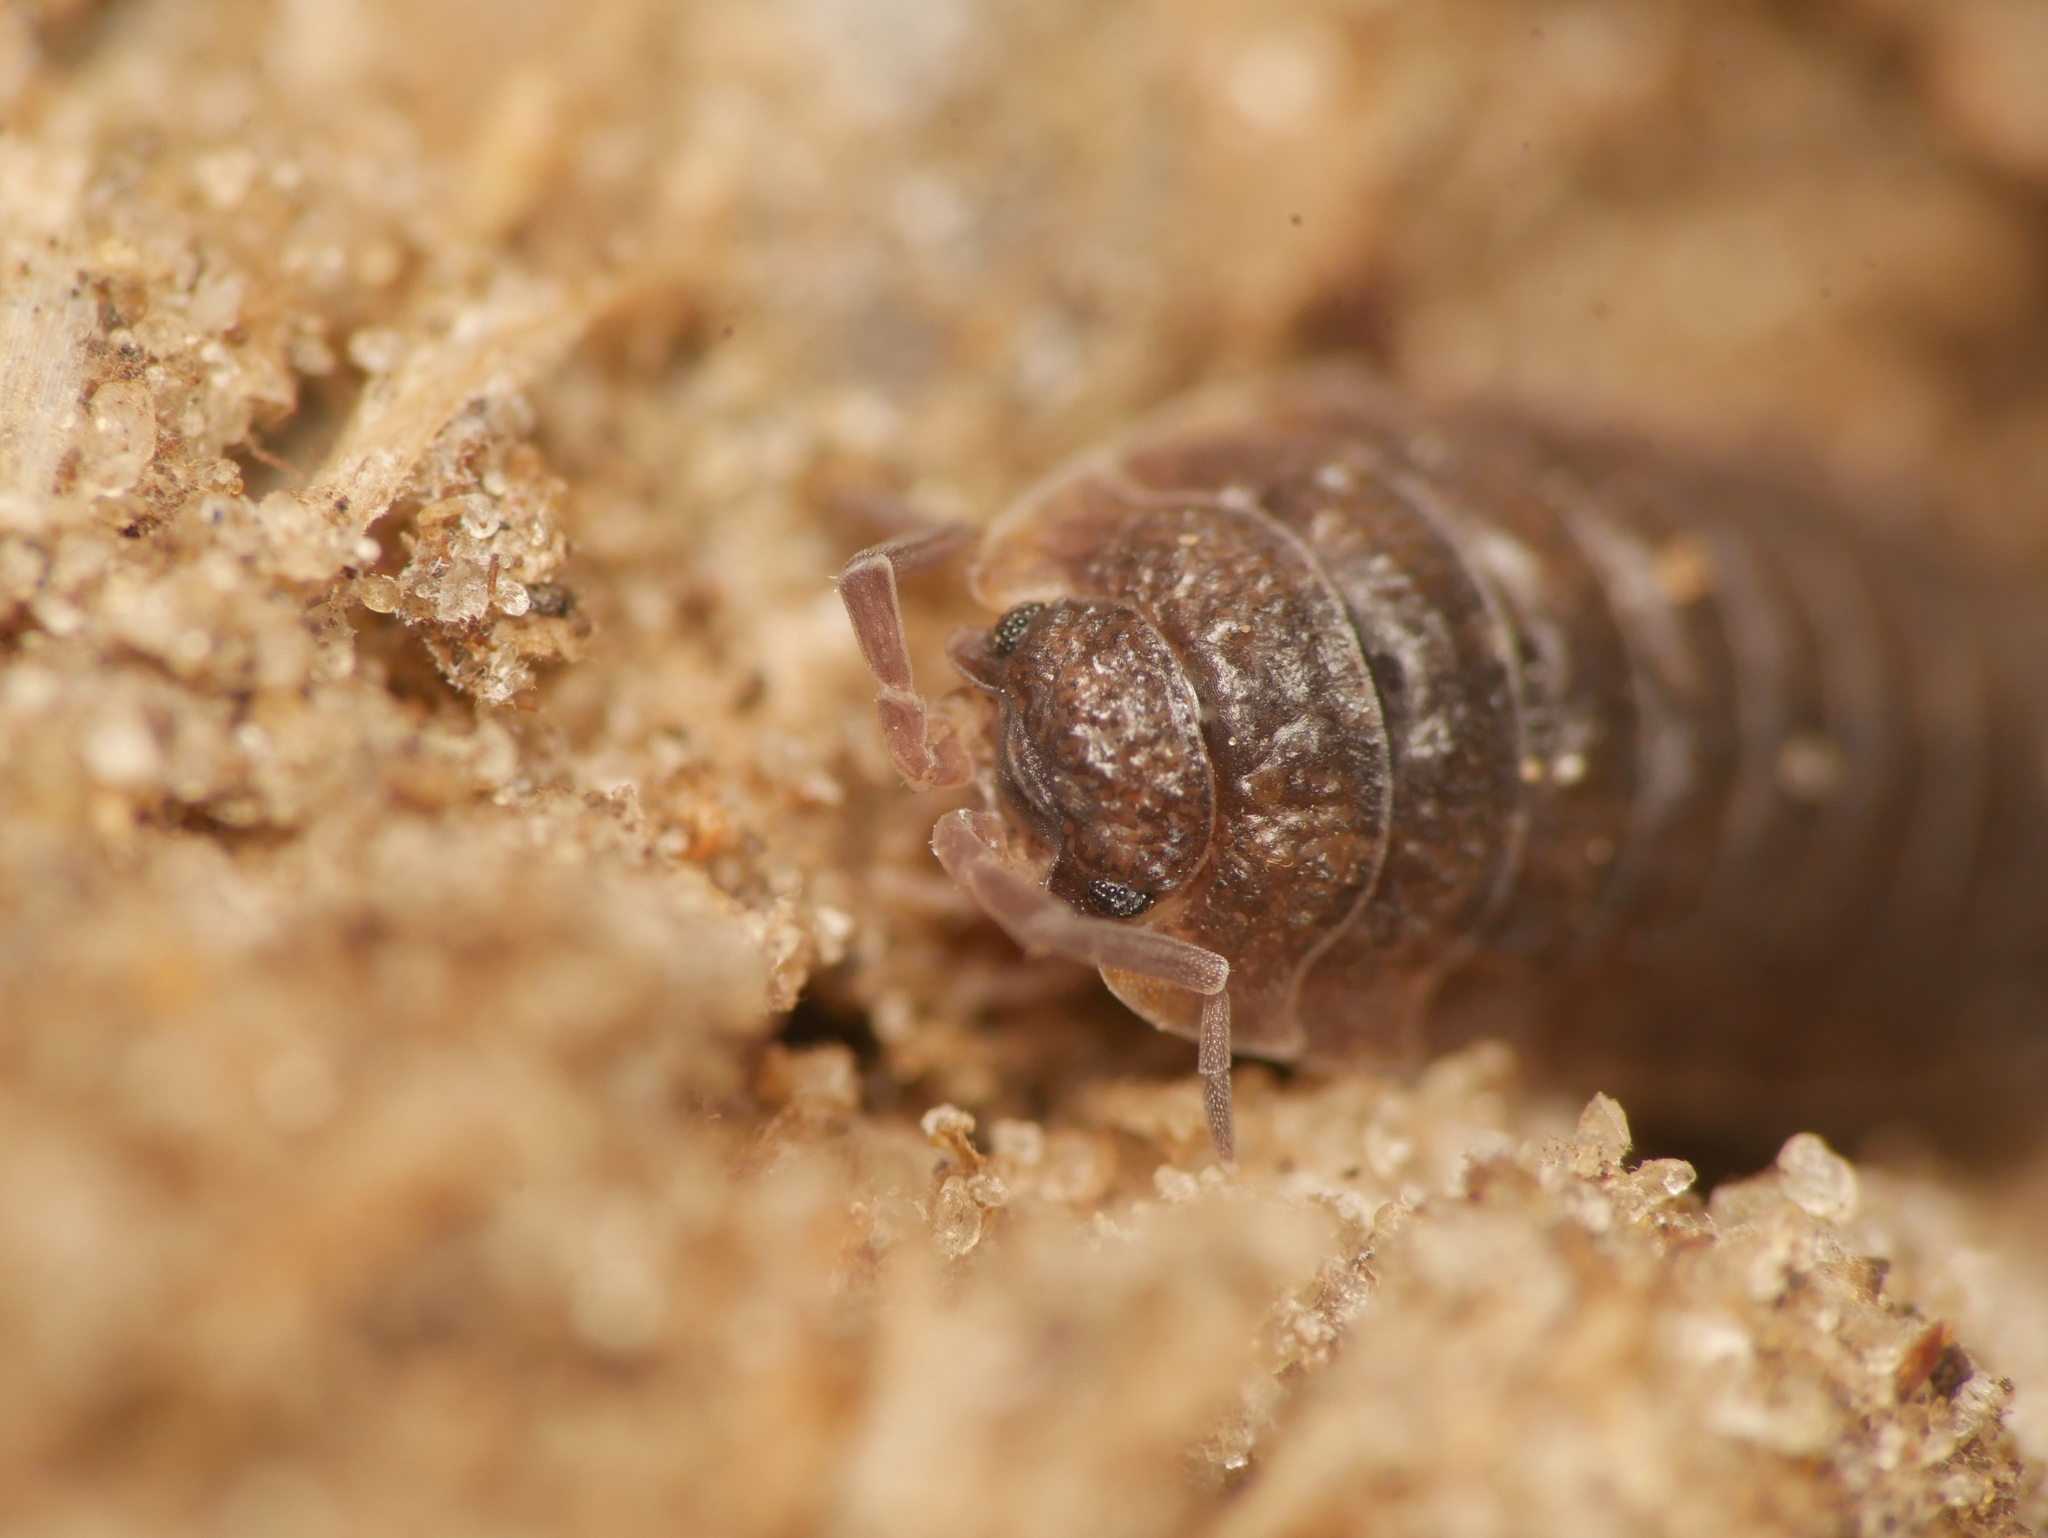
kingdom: Animalia
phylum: Arthropoda
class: Malacostraca
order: Isopoda
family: Porcellionidae
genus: Porcellio
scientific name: Porcellio scaber
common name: Common rough woodlouse
